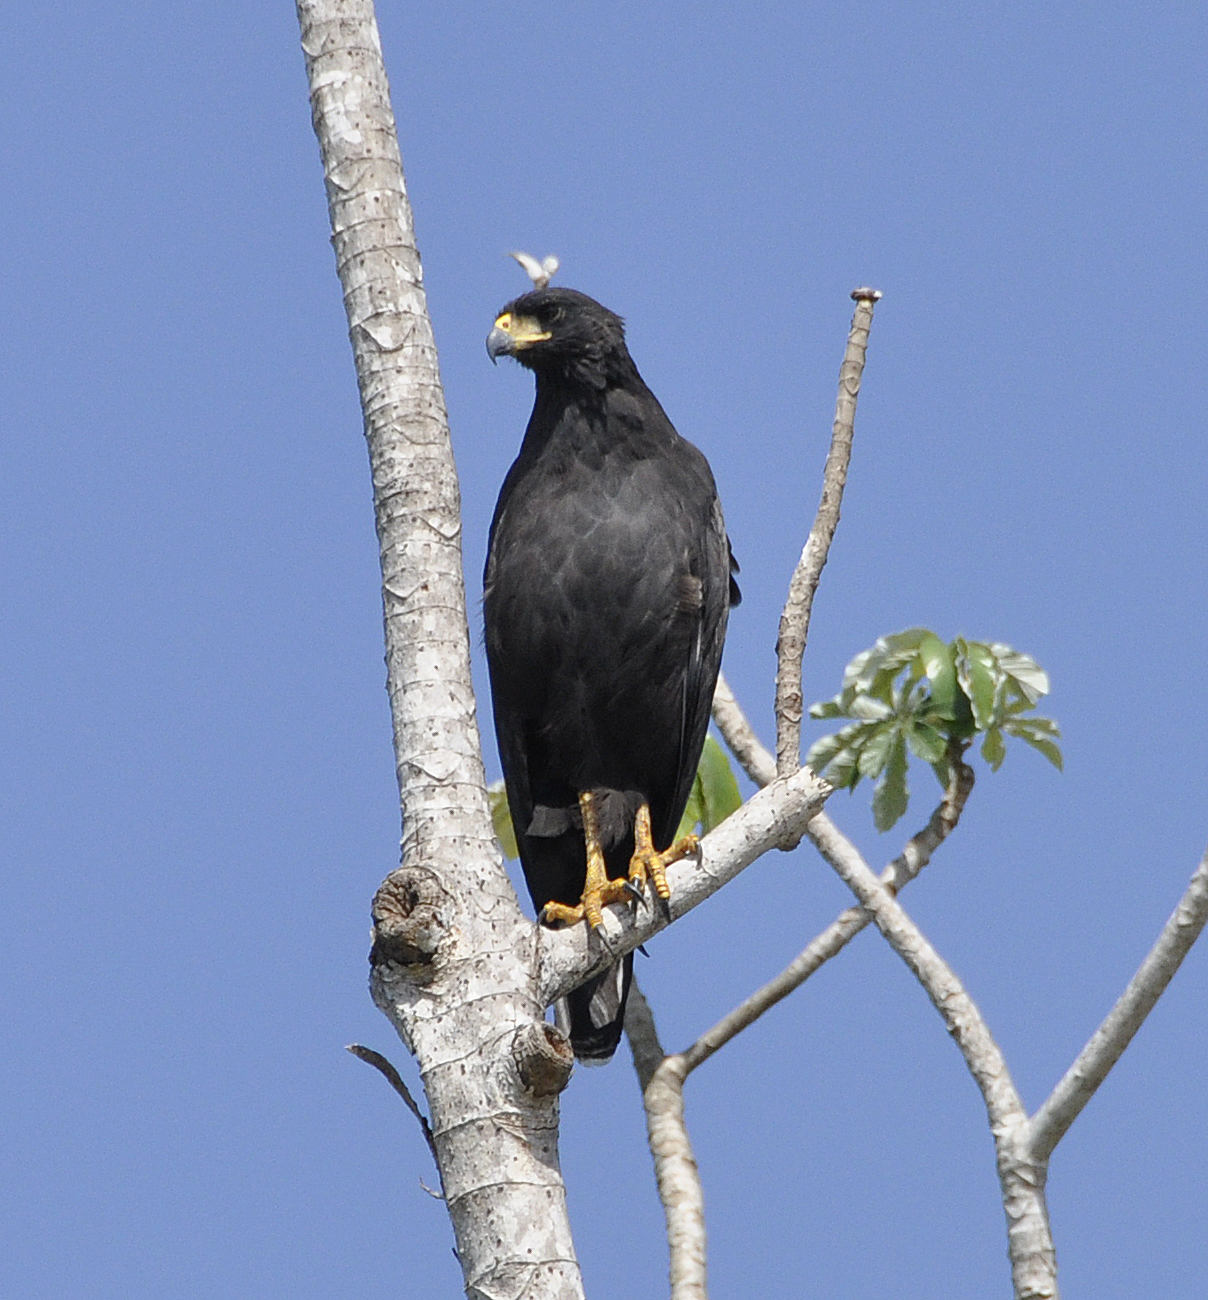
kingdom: Animalia
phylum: Chordata
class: Aves
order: Accipitriformes
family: Accipitridae
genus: Buteogallus
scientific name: Buteogallus urubitinga
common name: Great black hawk
